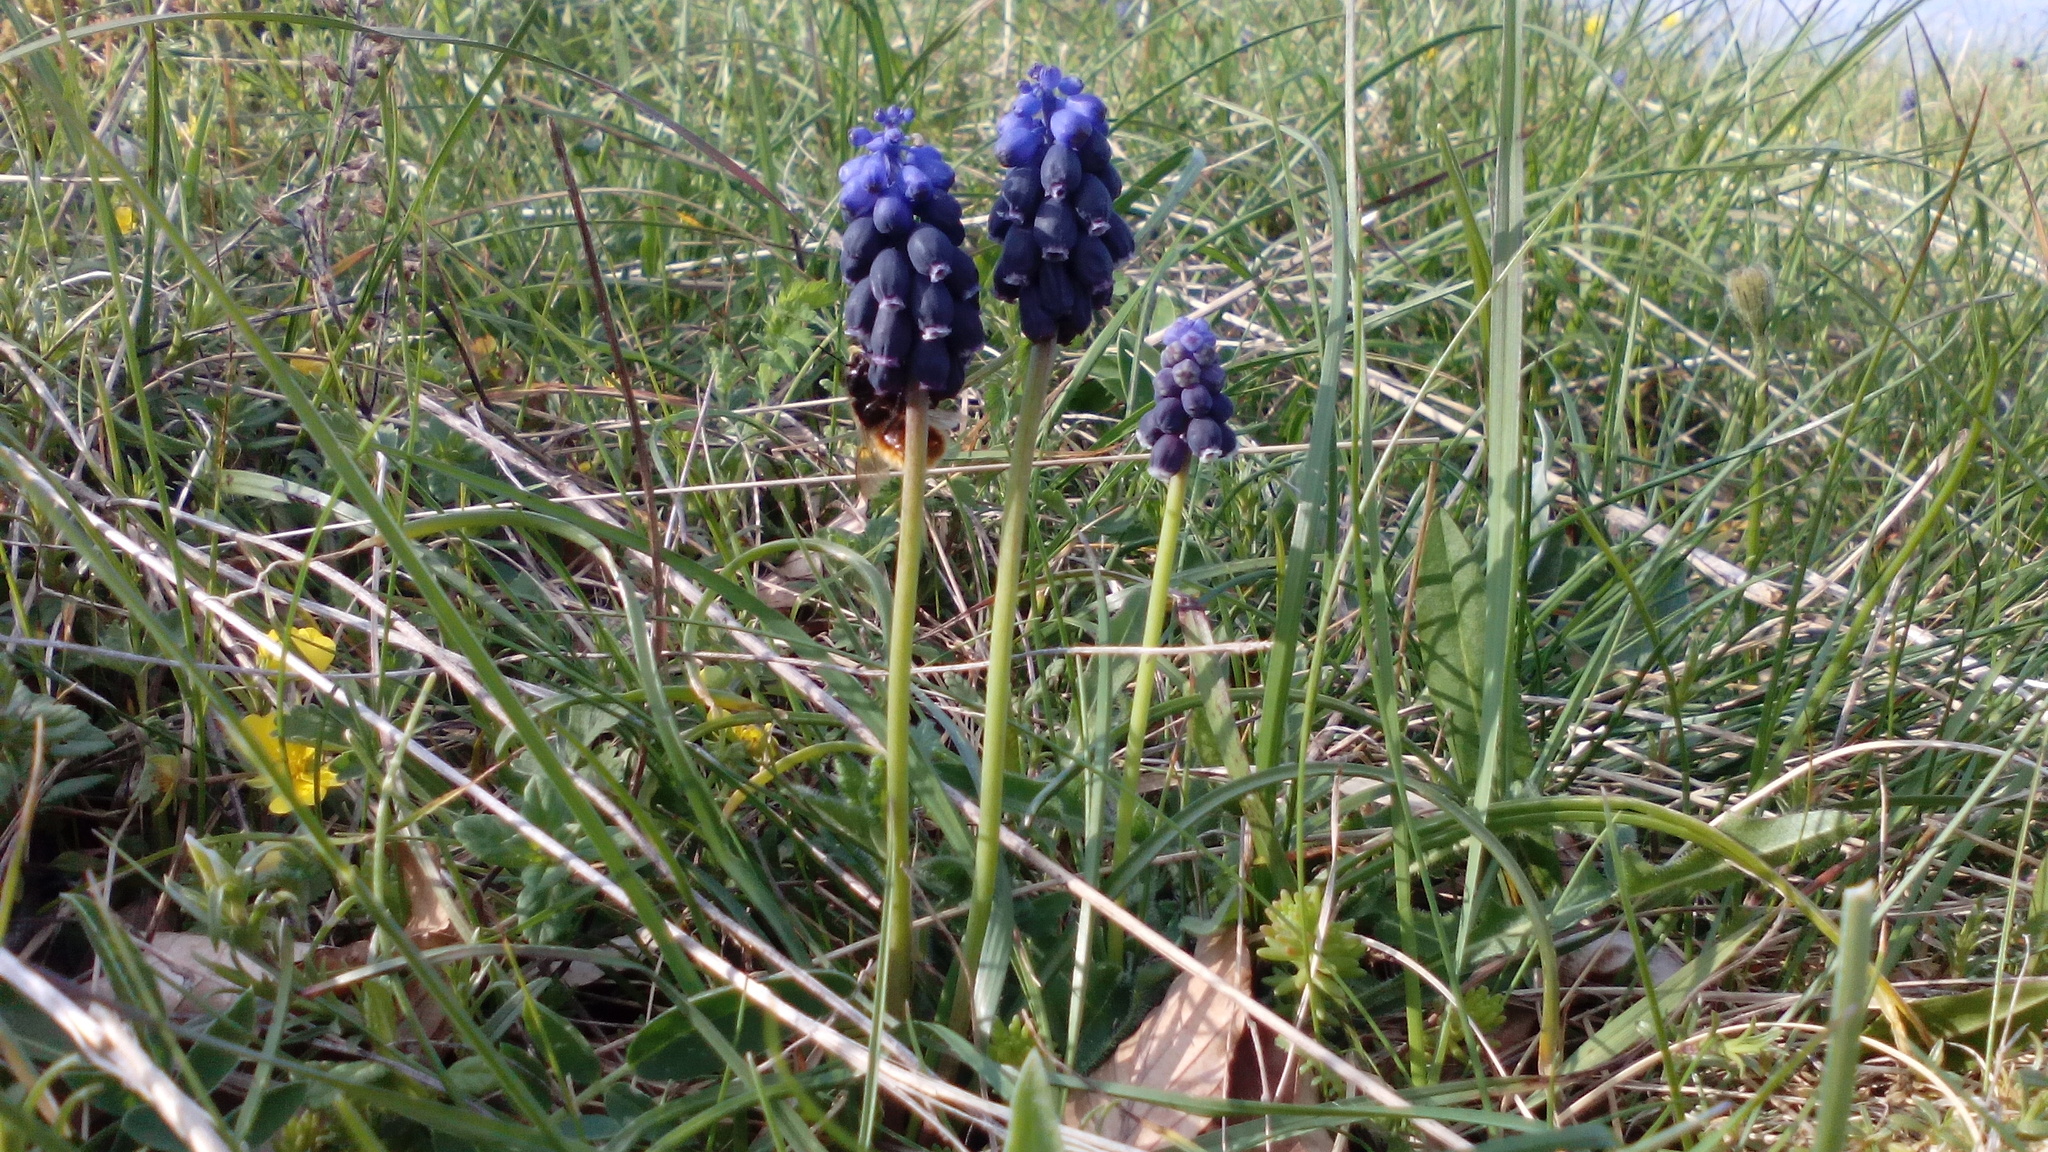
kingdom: Plantae
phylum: Tracheophyta
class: Liliopsida
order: Asparagales
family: Asparagaceae
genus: Muscari
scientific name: Muscari neglectum
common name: Grape-hyacinth
